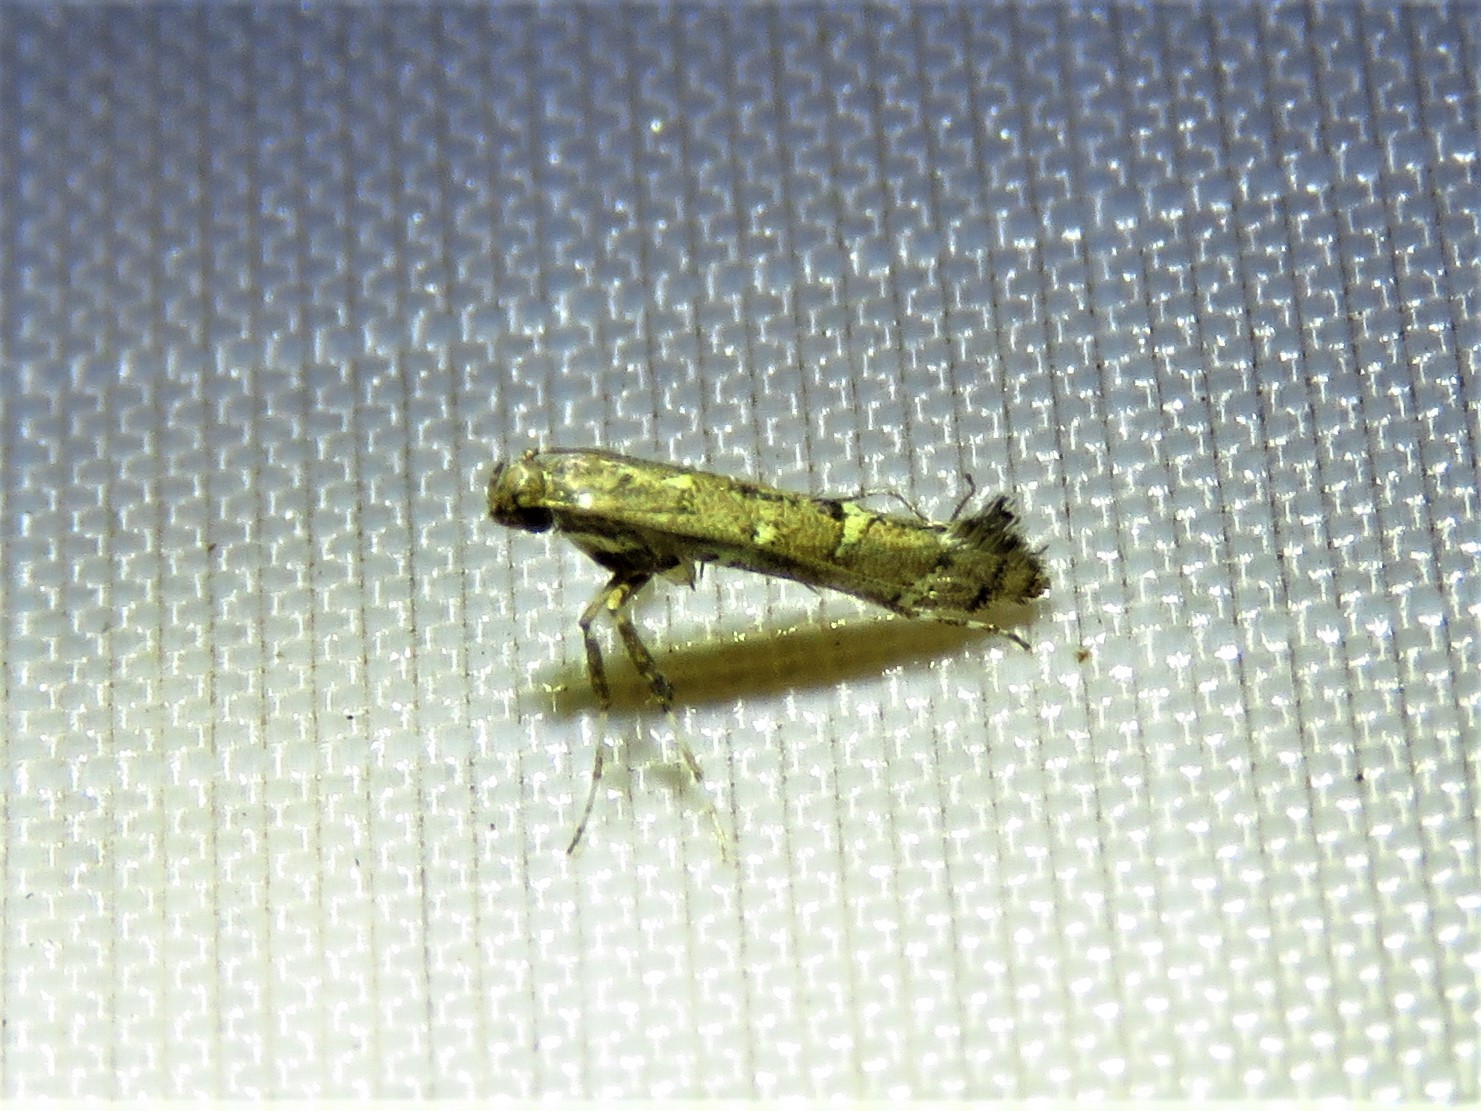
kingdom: Animalia
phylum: Arthropoda
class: Insecta
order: Lepidoptera
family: Gracillariidae
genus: Caloptilia
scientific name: Caloptilia triadicae
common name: Tallow leaf roller
